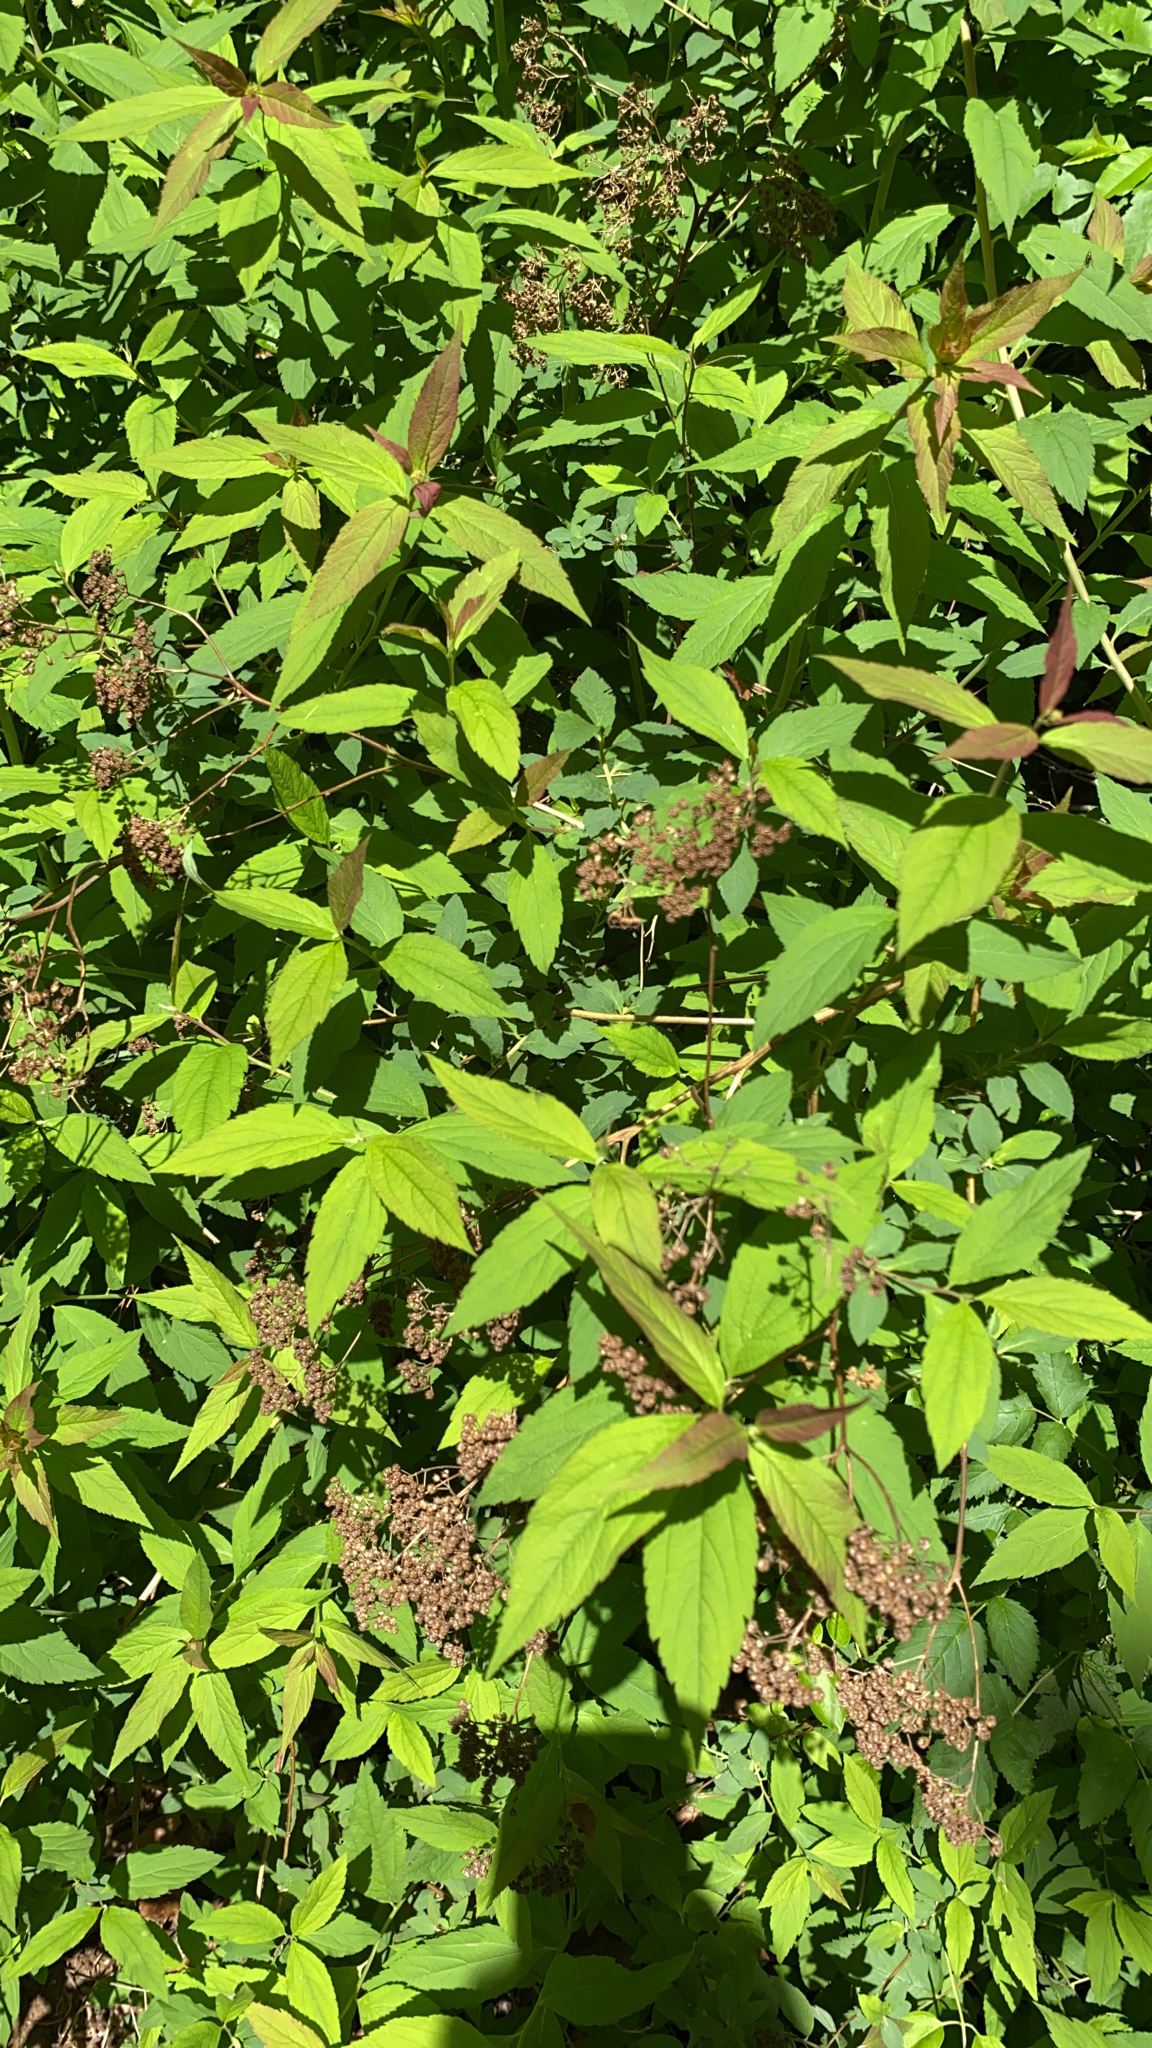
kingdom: Plantae
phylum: Tracheophyta
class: Magnoliopsida
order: Rosales
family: Rosaceae
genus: Spiraea
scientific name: Spiraea japonica
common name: Japanese spiraea
